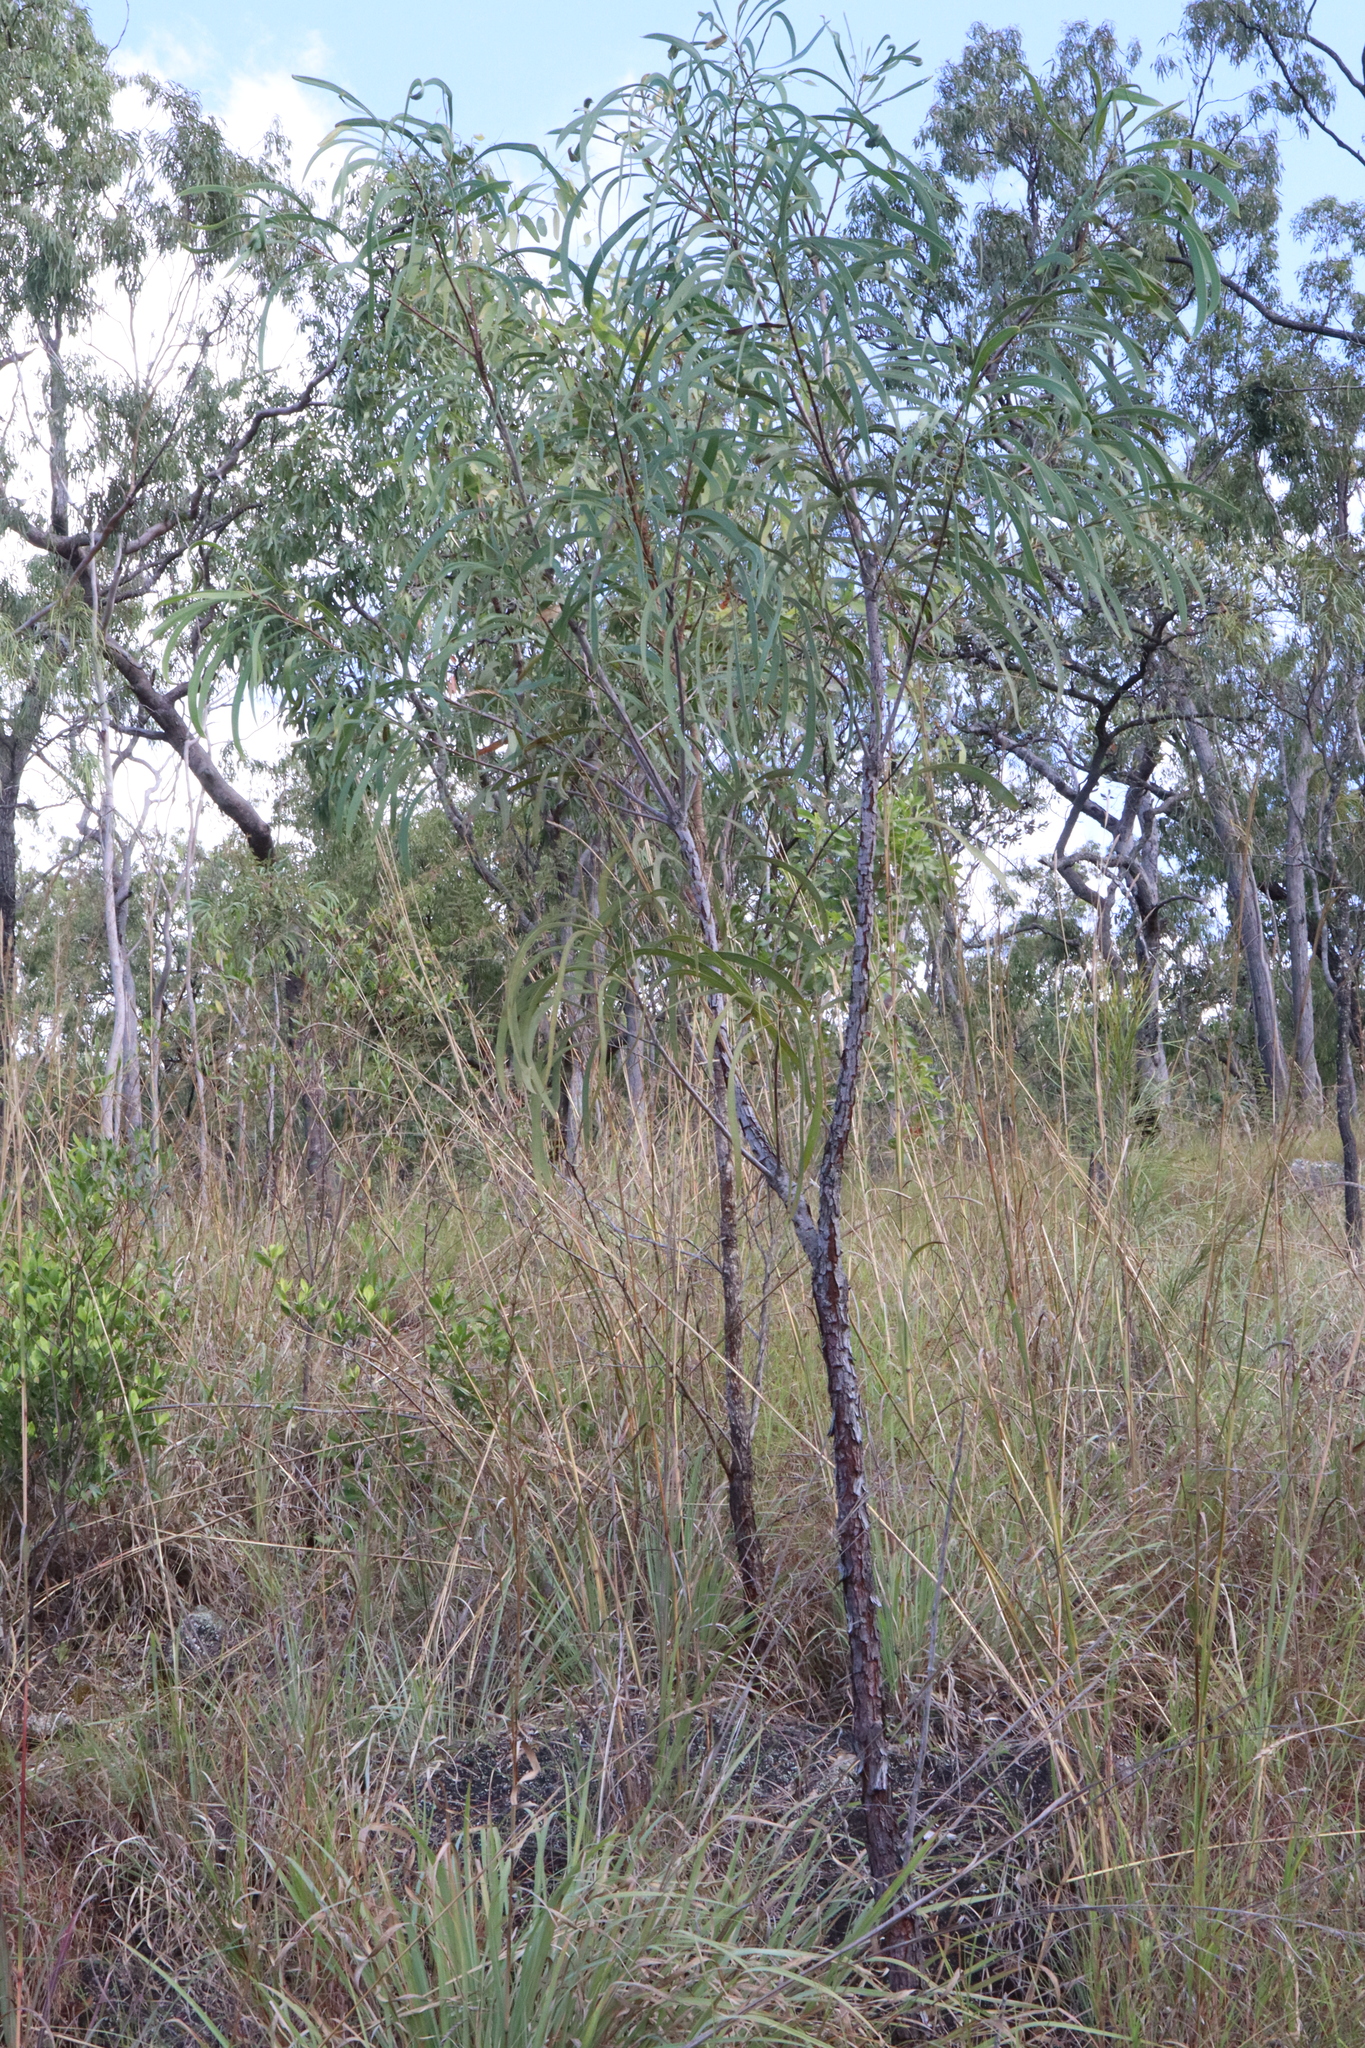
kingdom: Plantae
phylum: Tracheophyta
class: Magnoliopsida
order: Proteales
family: Proteaceae
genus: Persoonia
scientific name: Persoonia falcata
